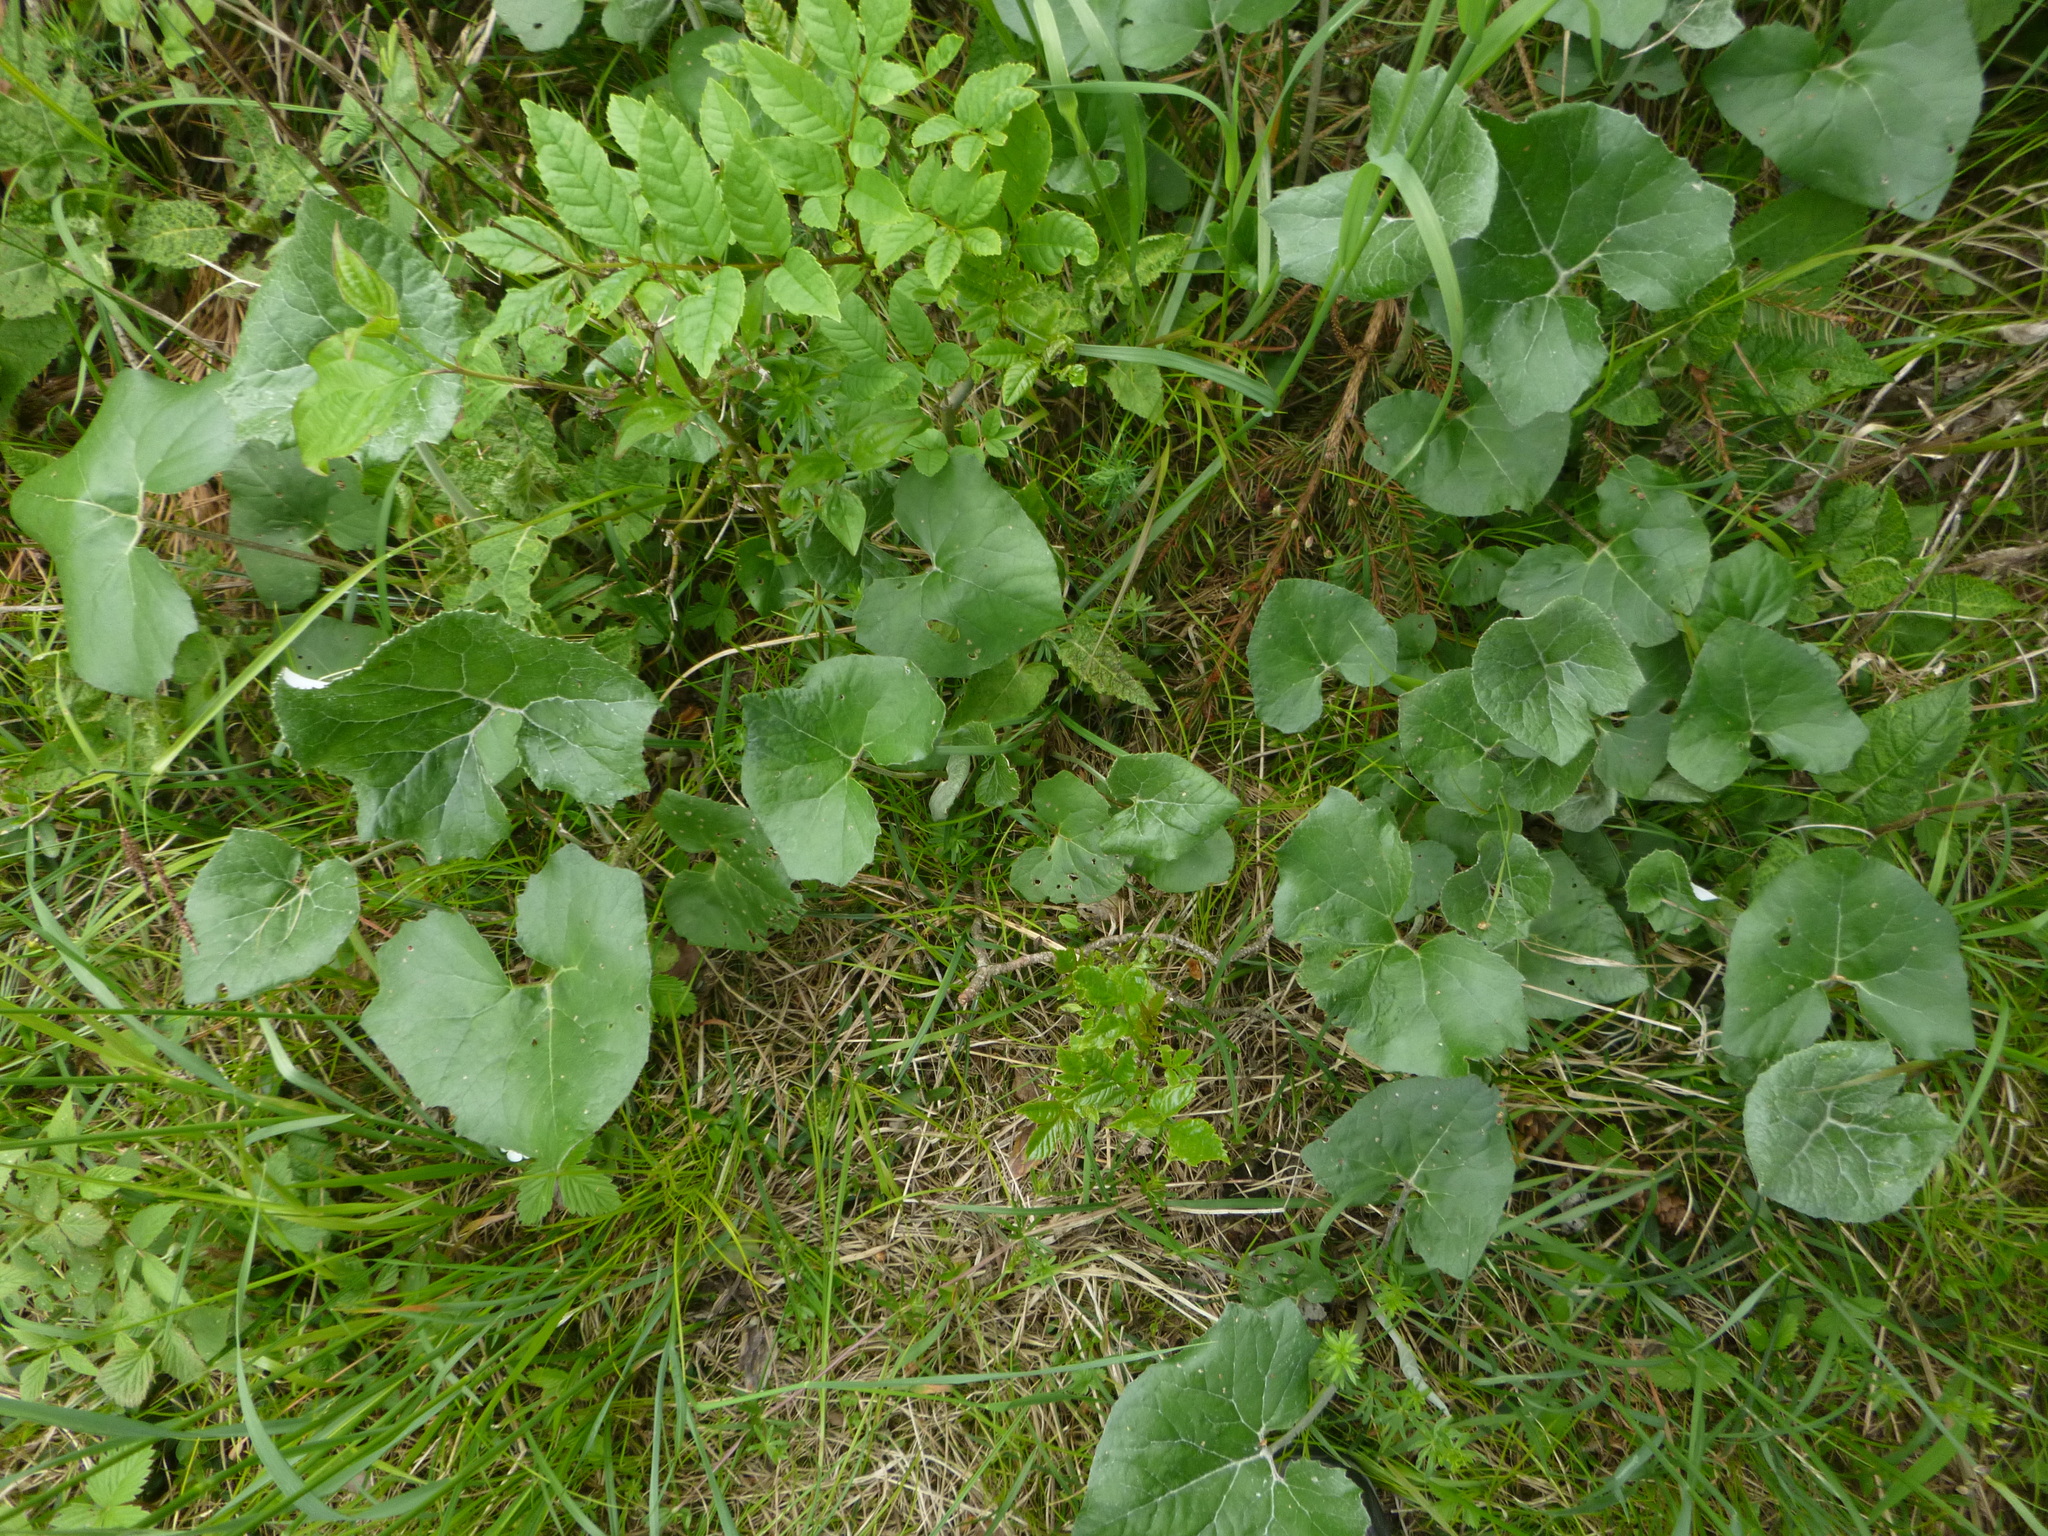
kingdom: Plantae
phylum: Tracheophyta
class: Magnoliopsida
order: Asterales
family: Asteraceae
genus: Petasites
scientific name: Petasites paradoxus
